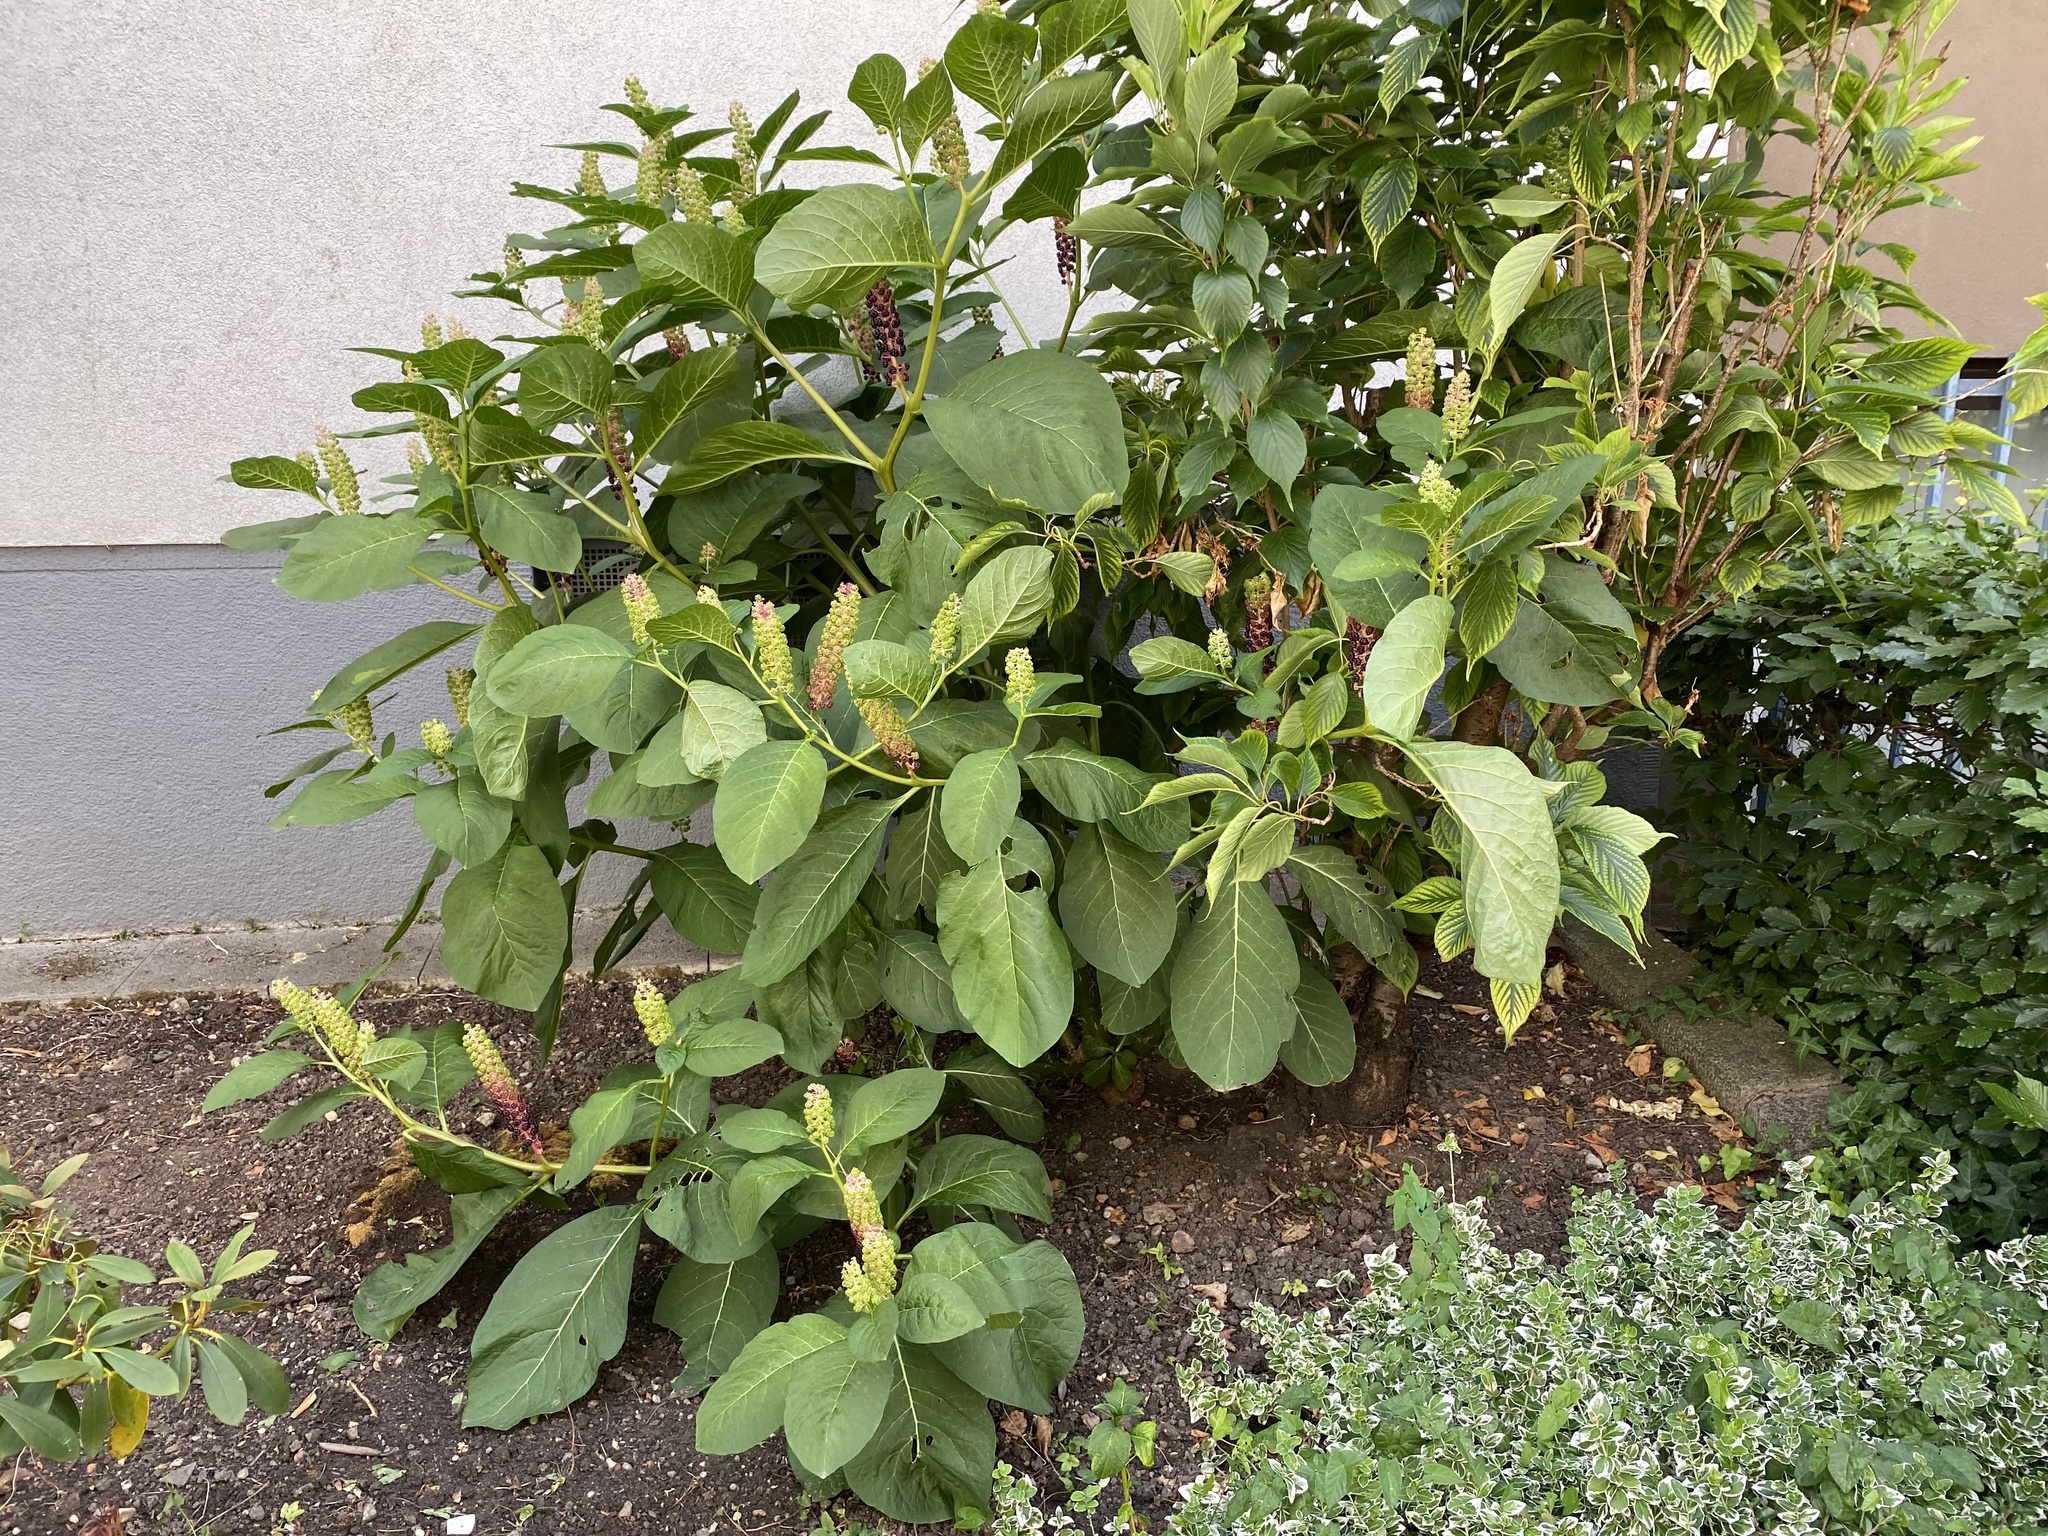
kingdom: Plantae
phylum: Tracheophyta
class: Magnoliopsida
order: Caryophyllales
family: Phytolaccaceae
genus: Phytolacca
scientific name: Phytolacca acinosa
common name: Indian pokeweed
